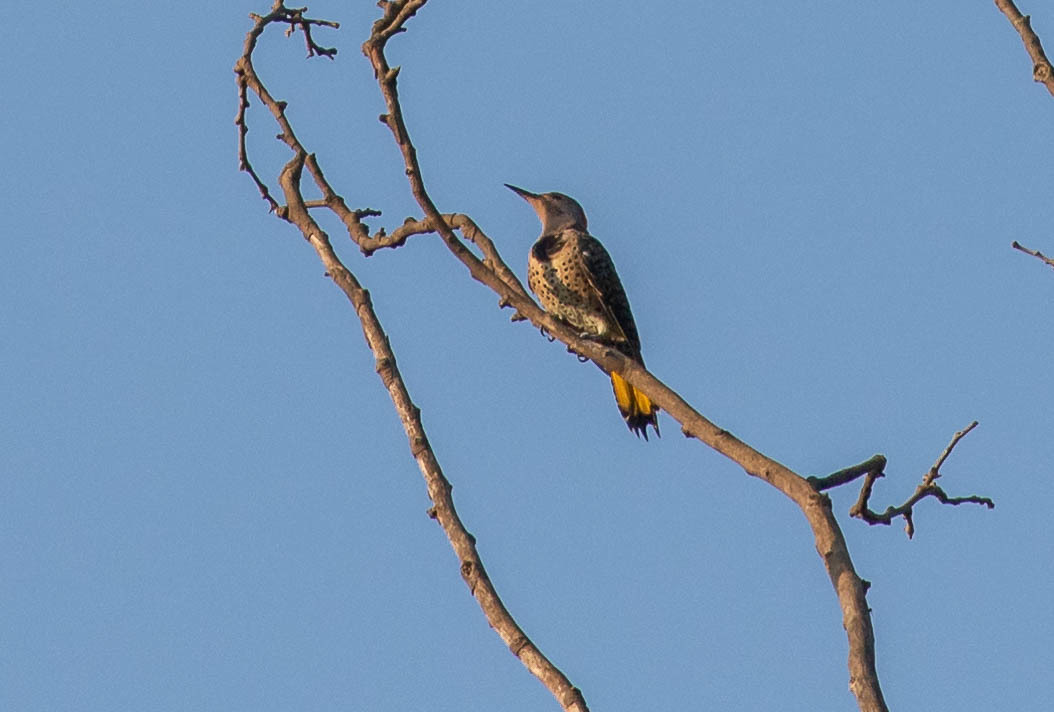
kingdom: Animalia
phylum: Chordata
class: Aves
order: Piciformes
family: Picidae
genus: Colaptes
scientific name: Colaptes auratus
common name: Northern flicker
